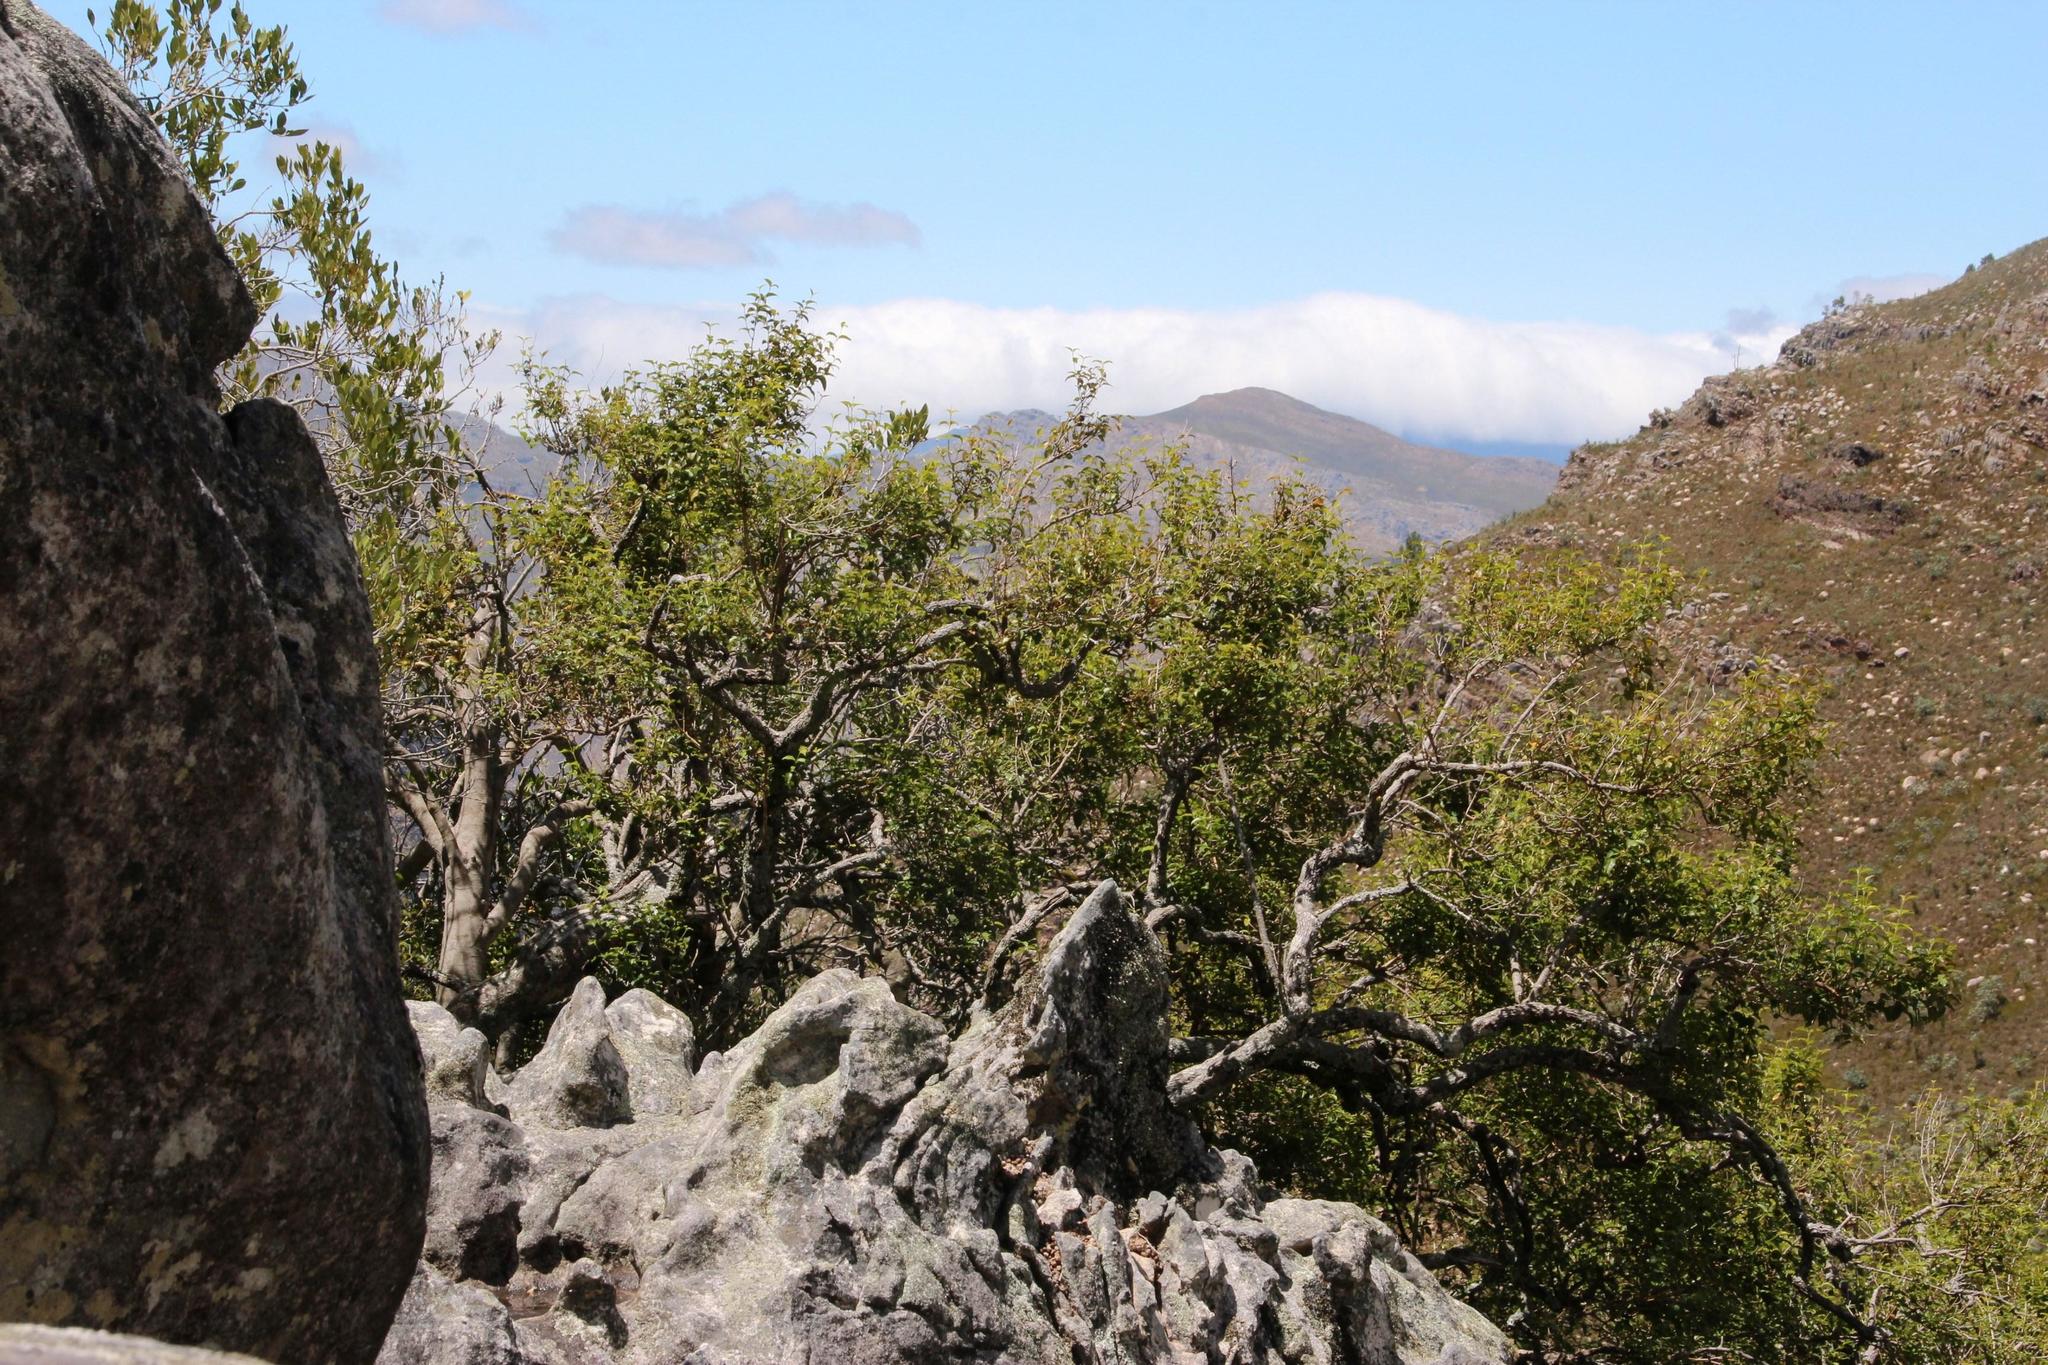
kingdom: Plantae
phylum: Tracheophyta
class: Magnoliopsida
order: Lamiales
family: Stilbaceae
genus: Halleria
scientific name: Halleria lucida
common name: Tree fuschia
